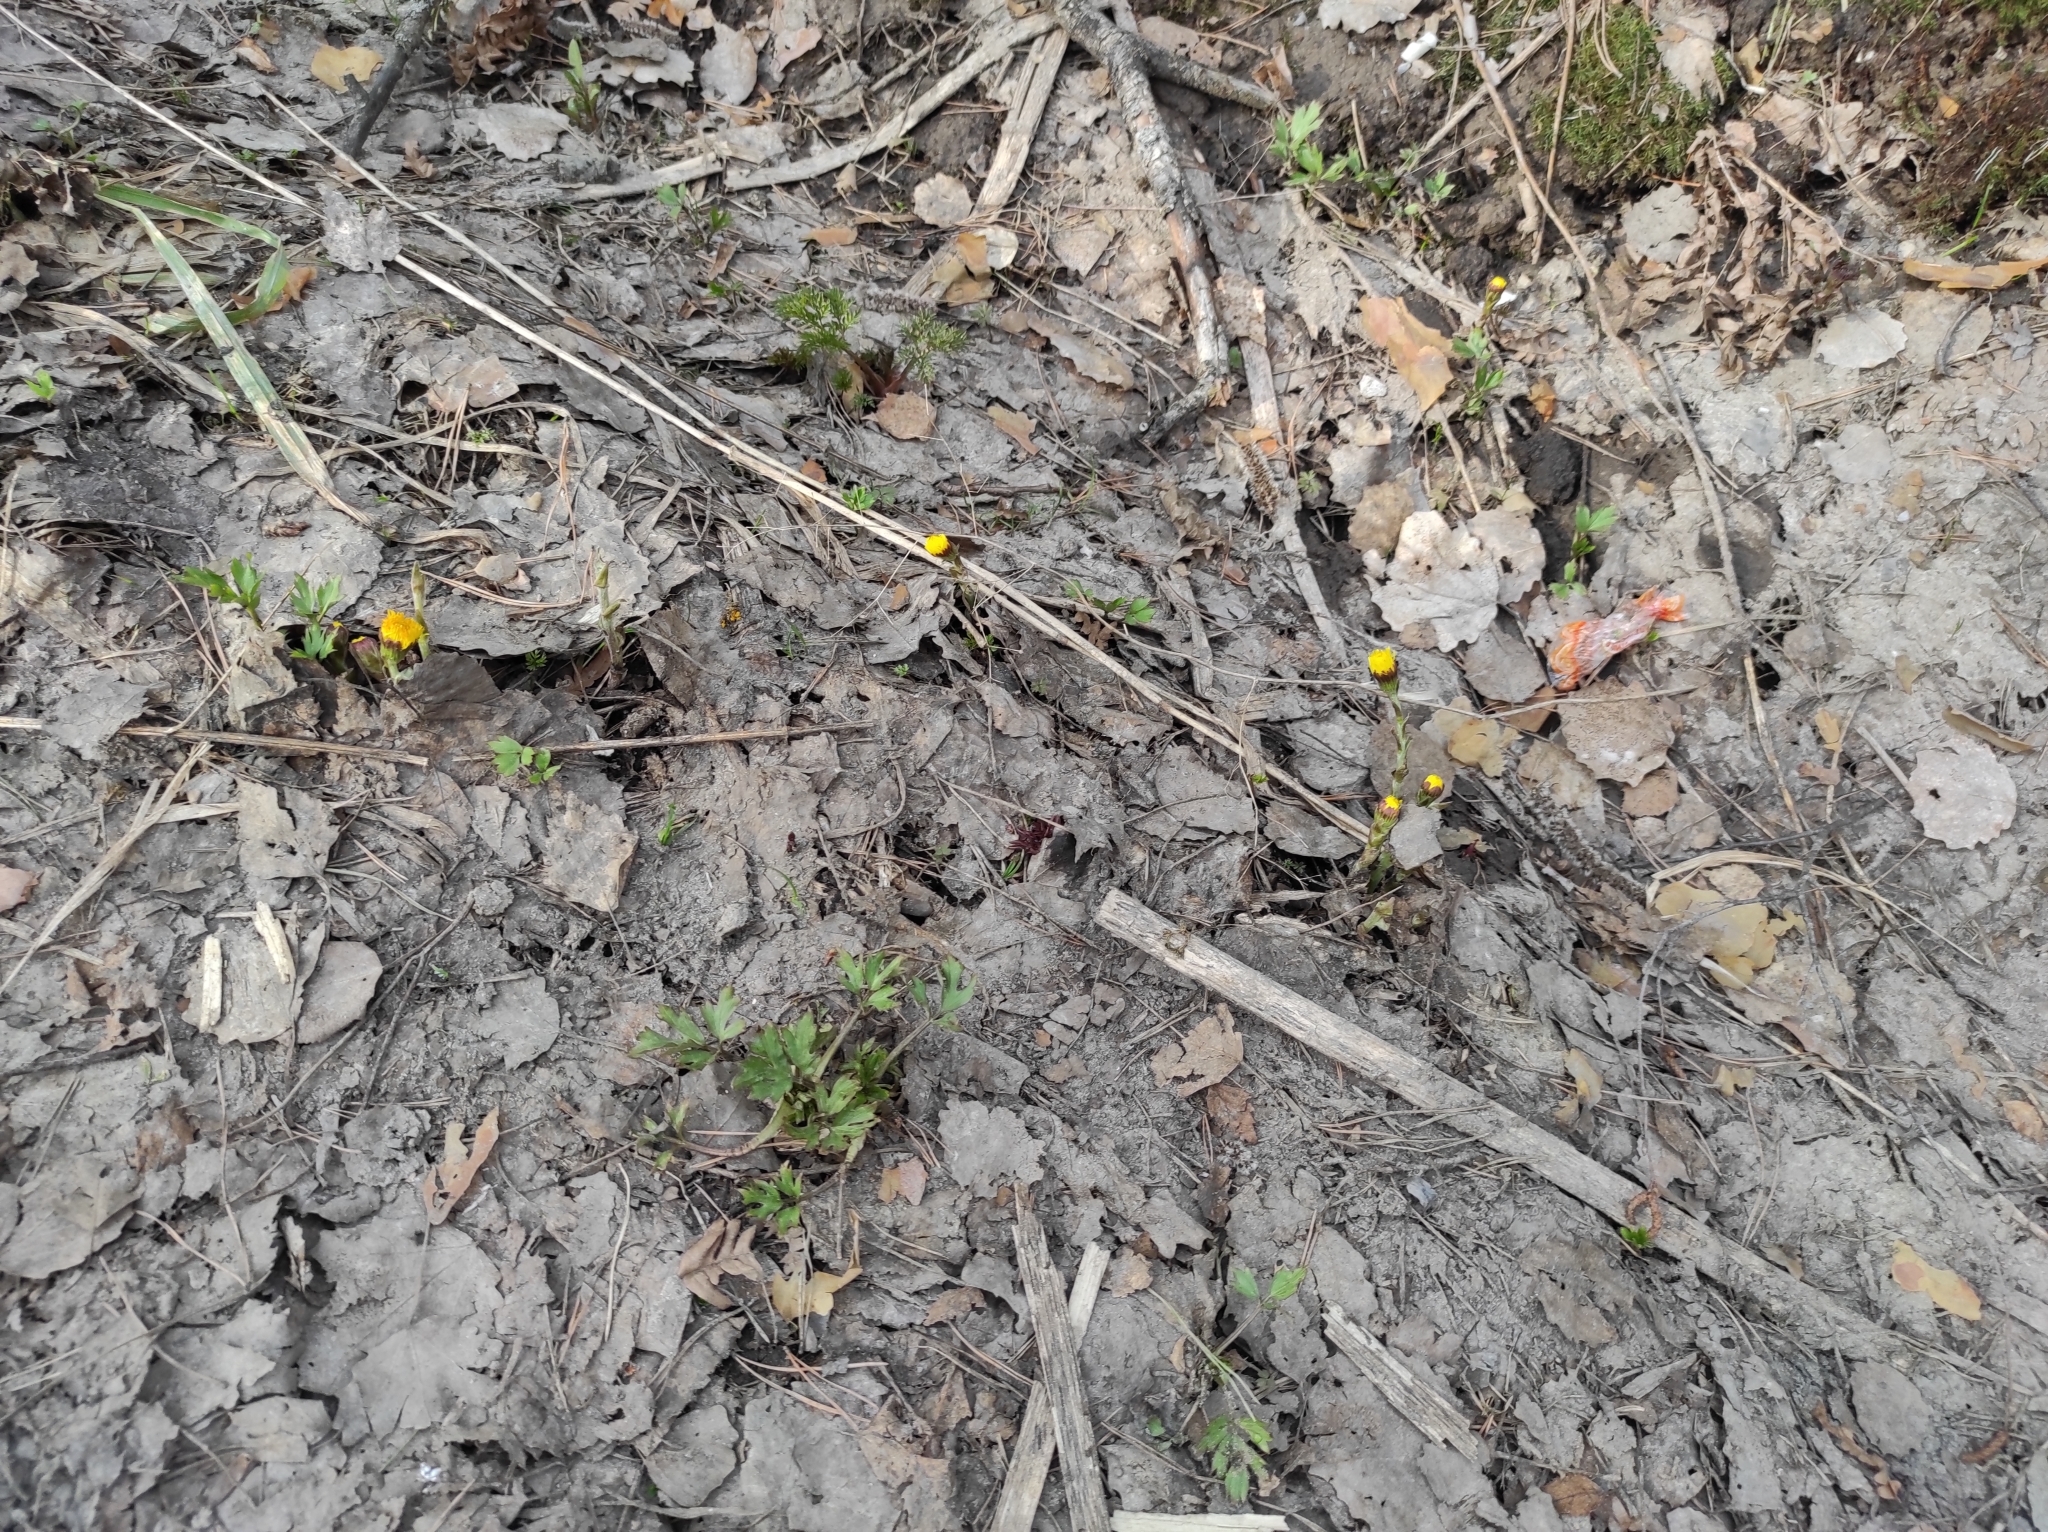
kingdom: Plantae
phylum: Tracheophyta
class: Magnoliopsida
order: Asterales
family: Asteraceae
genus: Tussilago
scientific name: Tussilago farfara
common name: Coltsfoot
